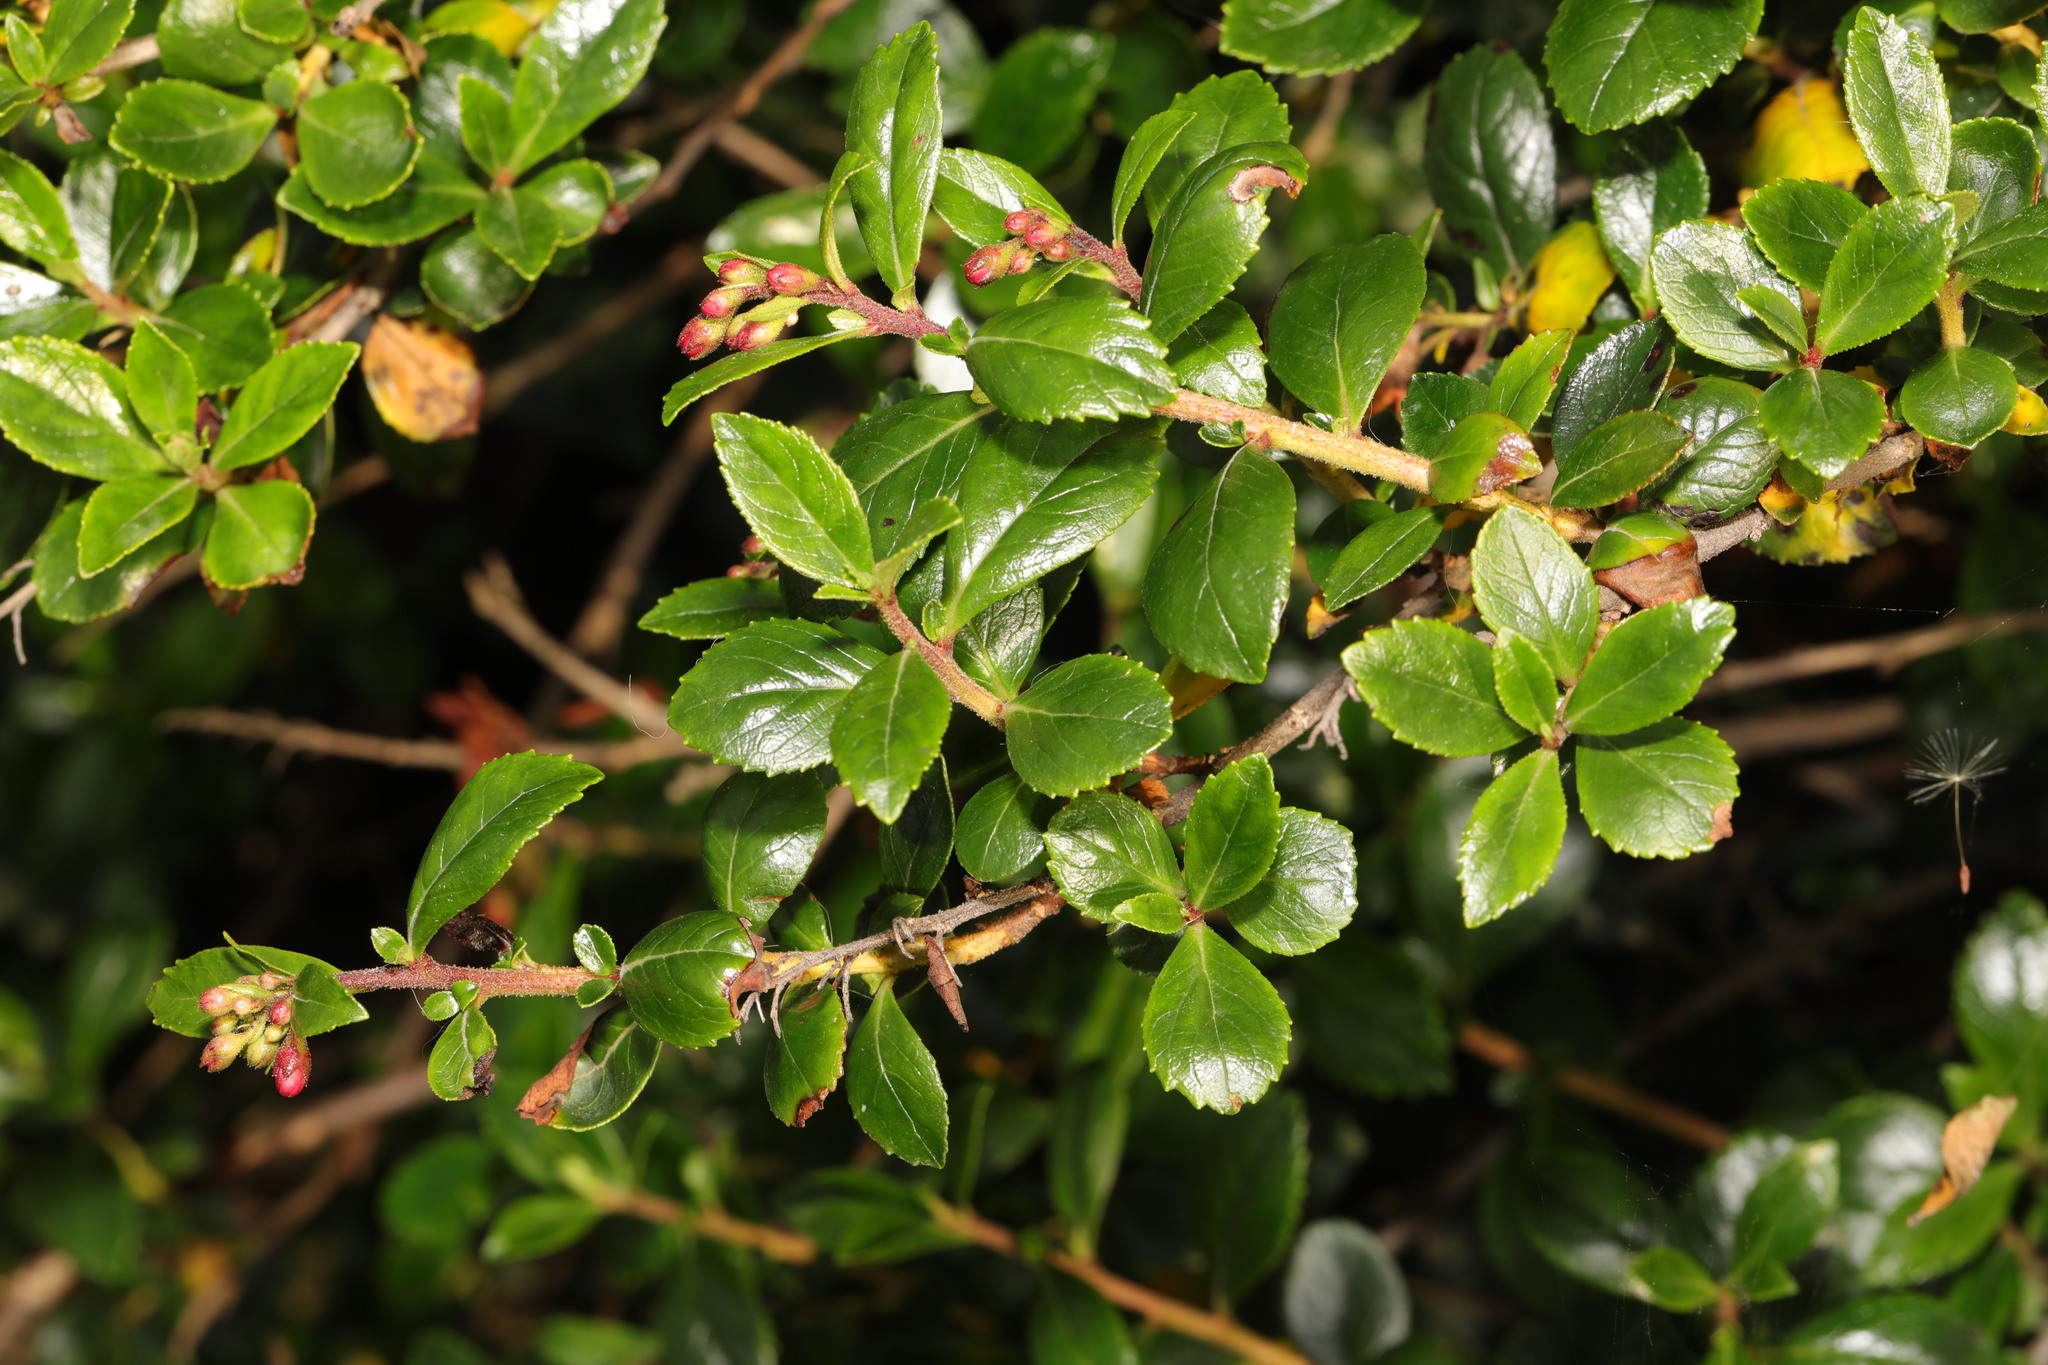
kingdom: Plantae
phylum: Tracheophyta
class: Magnoliopsida
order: Escalloniales
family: Escalloniaceae
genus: Escallonia
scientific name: Escallonia rubra
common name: Redclaws
